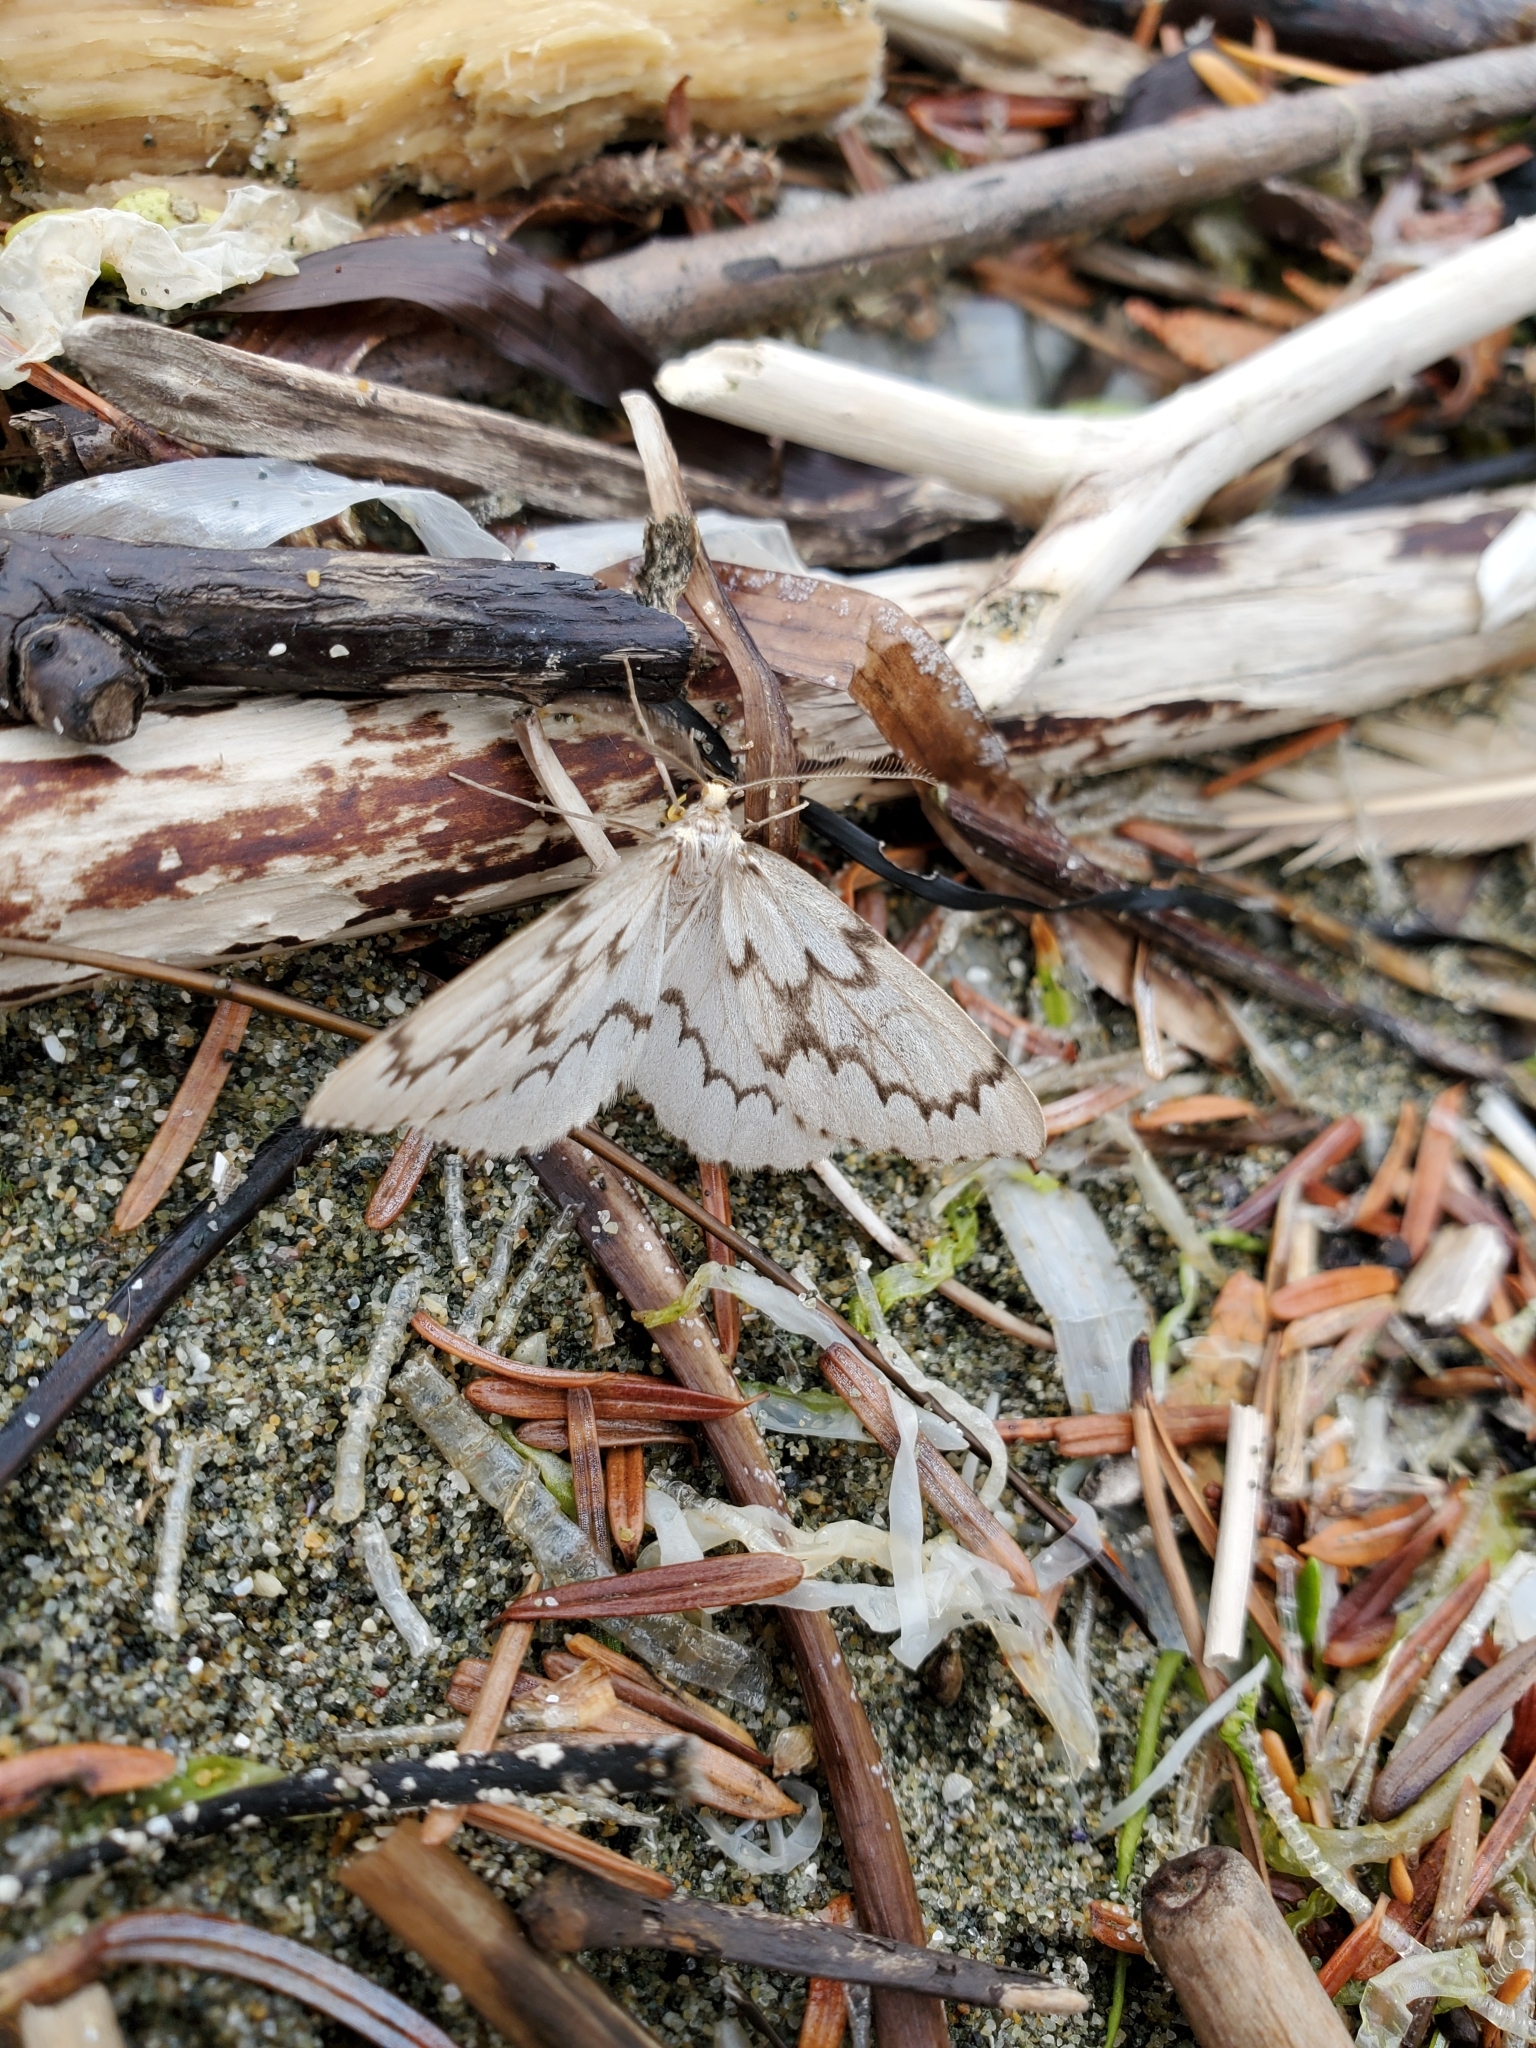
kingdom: Animalia
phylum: Arthropoda
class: Insecta
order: Lepidoptera
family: Geometridae
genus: Nepytia
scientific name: Nepytia phantasmaria
